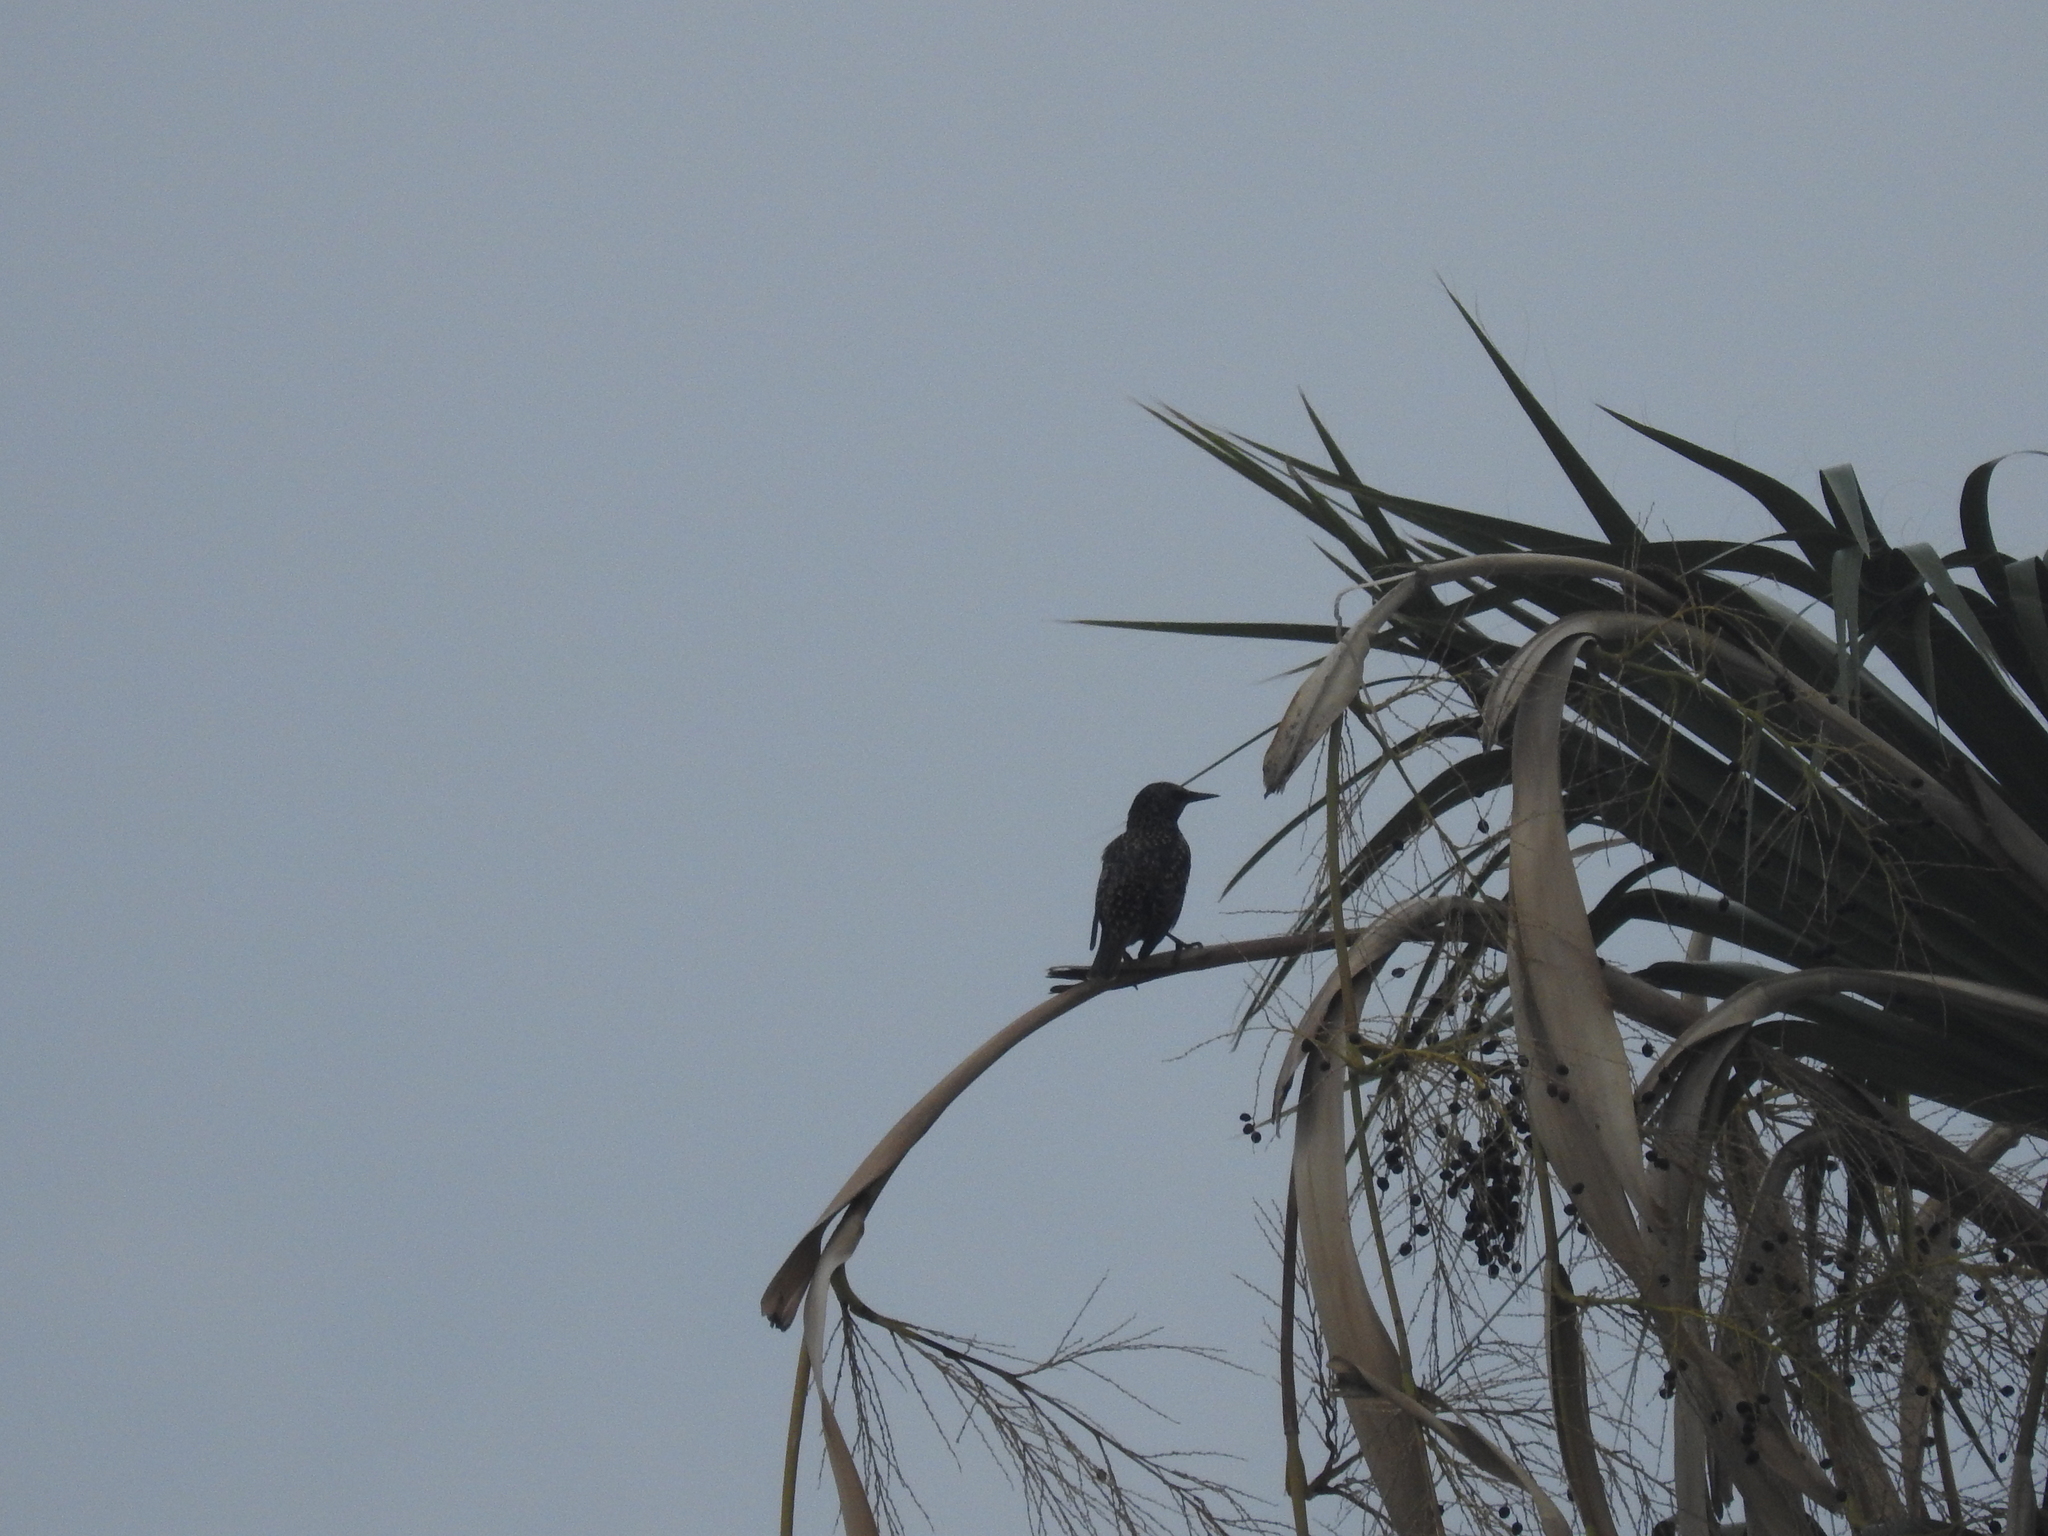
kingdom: Animalia
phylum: Chordata
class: Aves
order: Passeriformes
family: Sturnidae
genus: Sturnus
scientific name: Sturnus vulgaris
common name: Common starling
